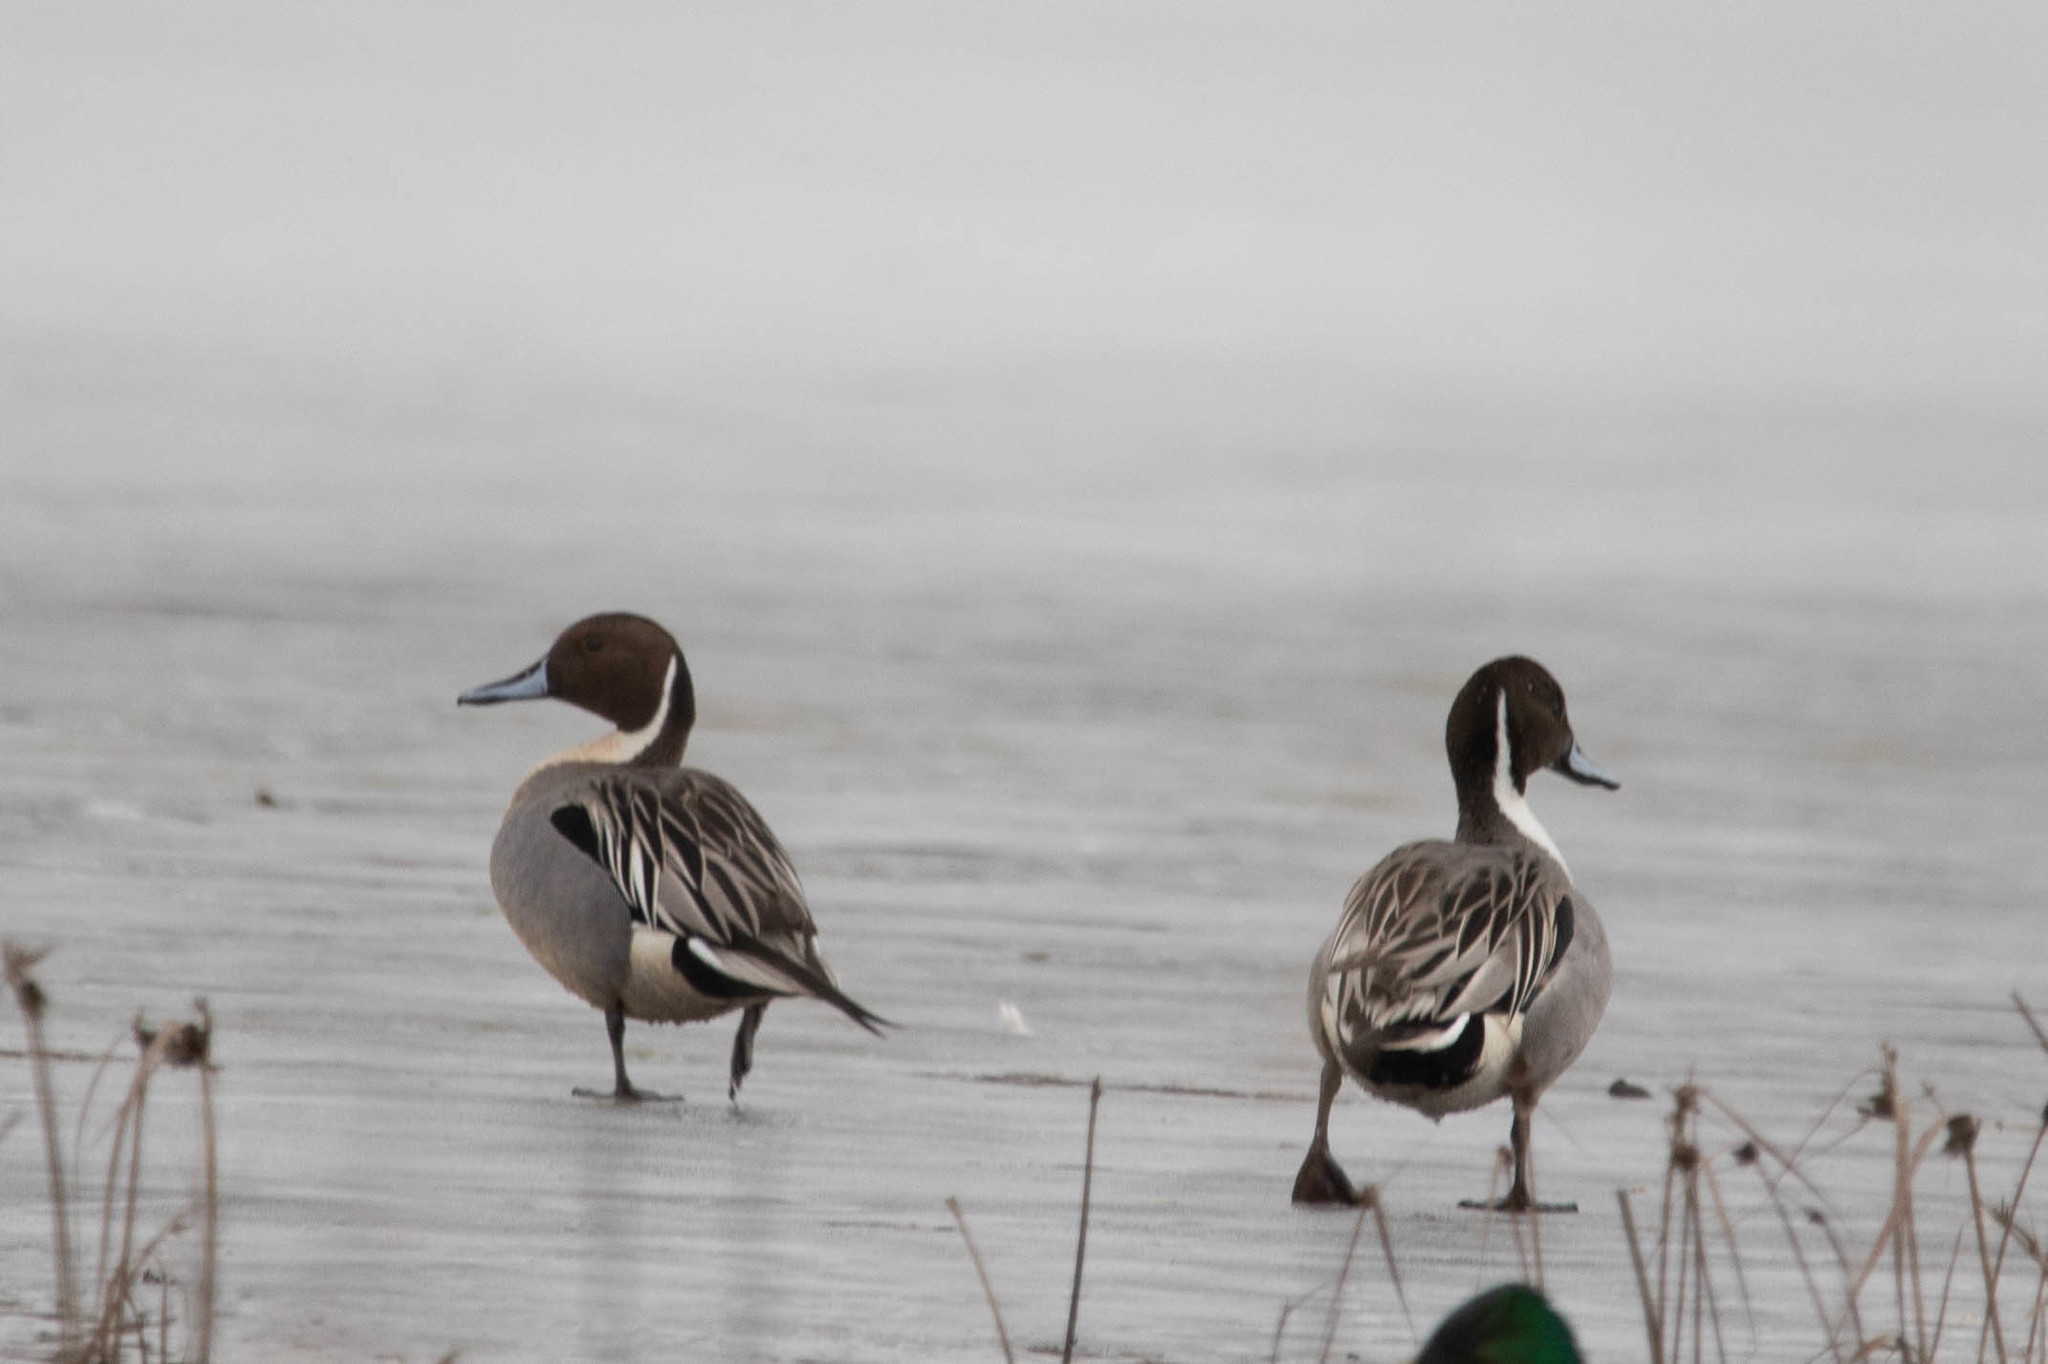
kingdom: Animalia
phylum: Chordata
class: Aves
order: Anseriformes
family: Anatidae
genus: Anas
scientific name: Anas acuta
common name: Northern pintail
